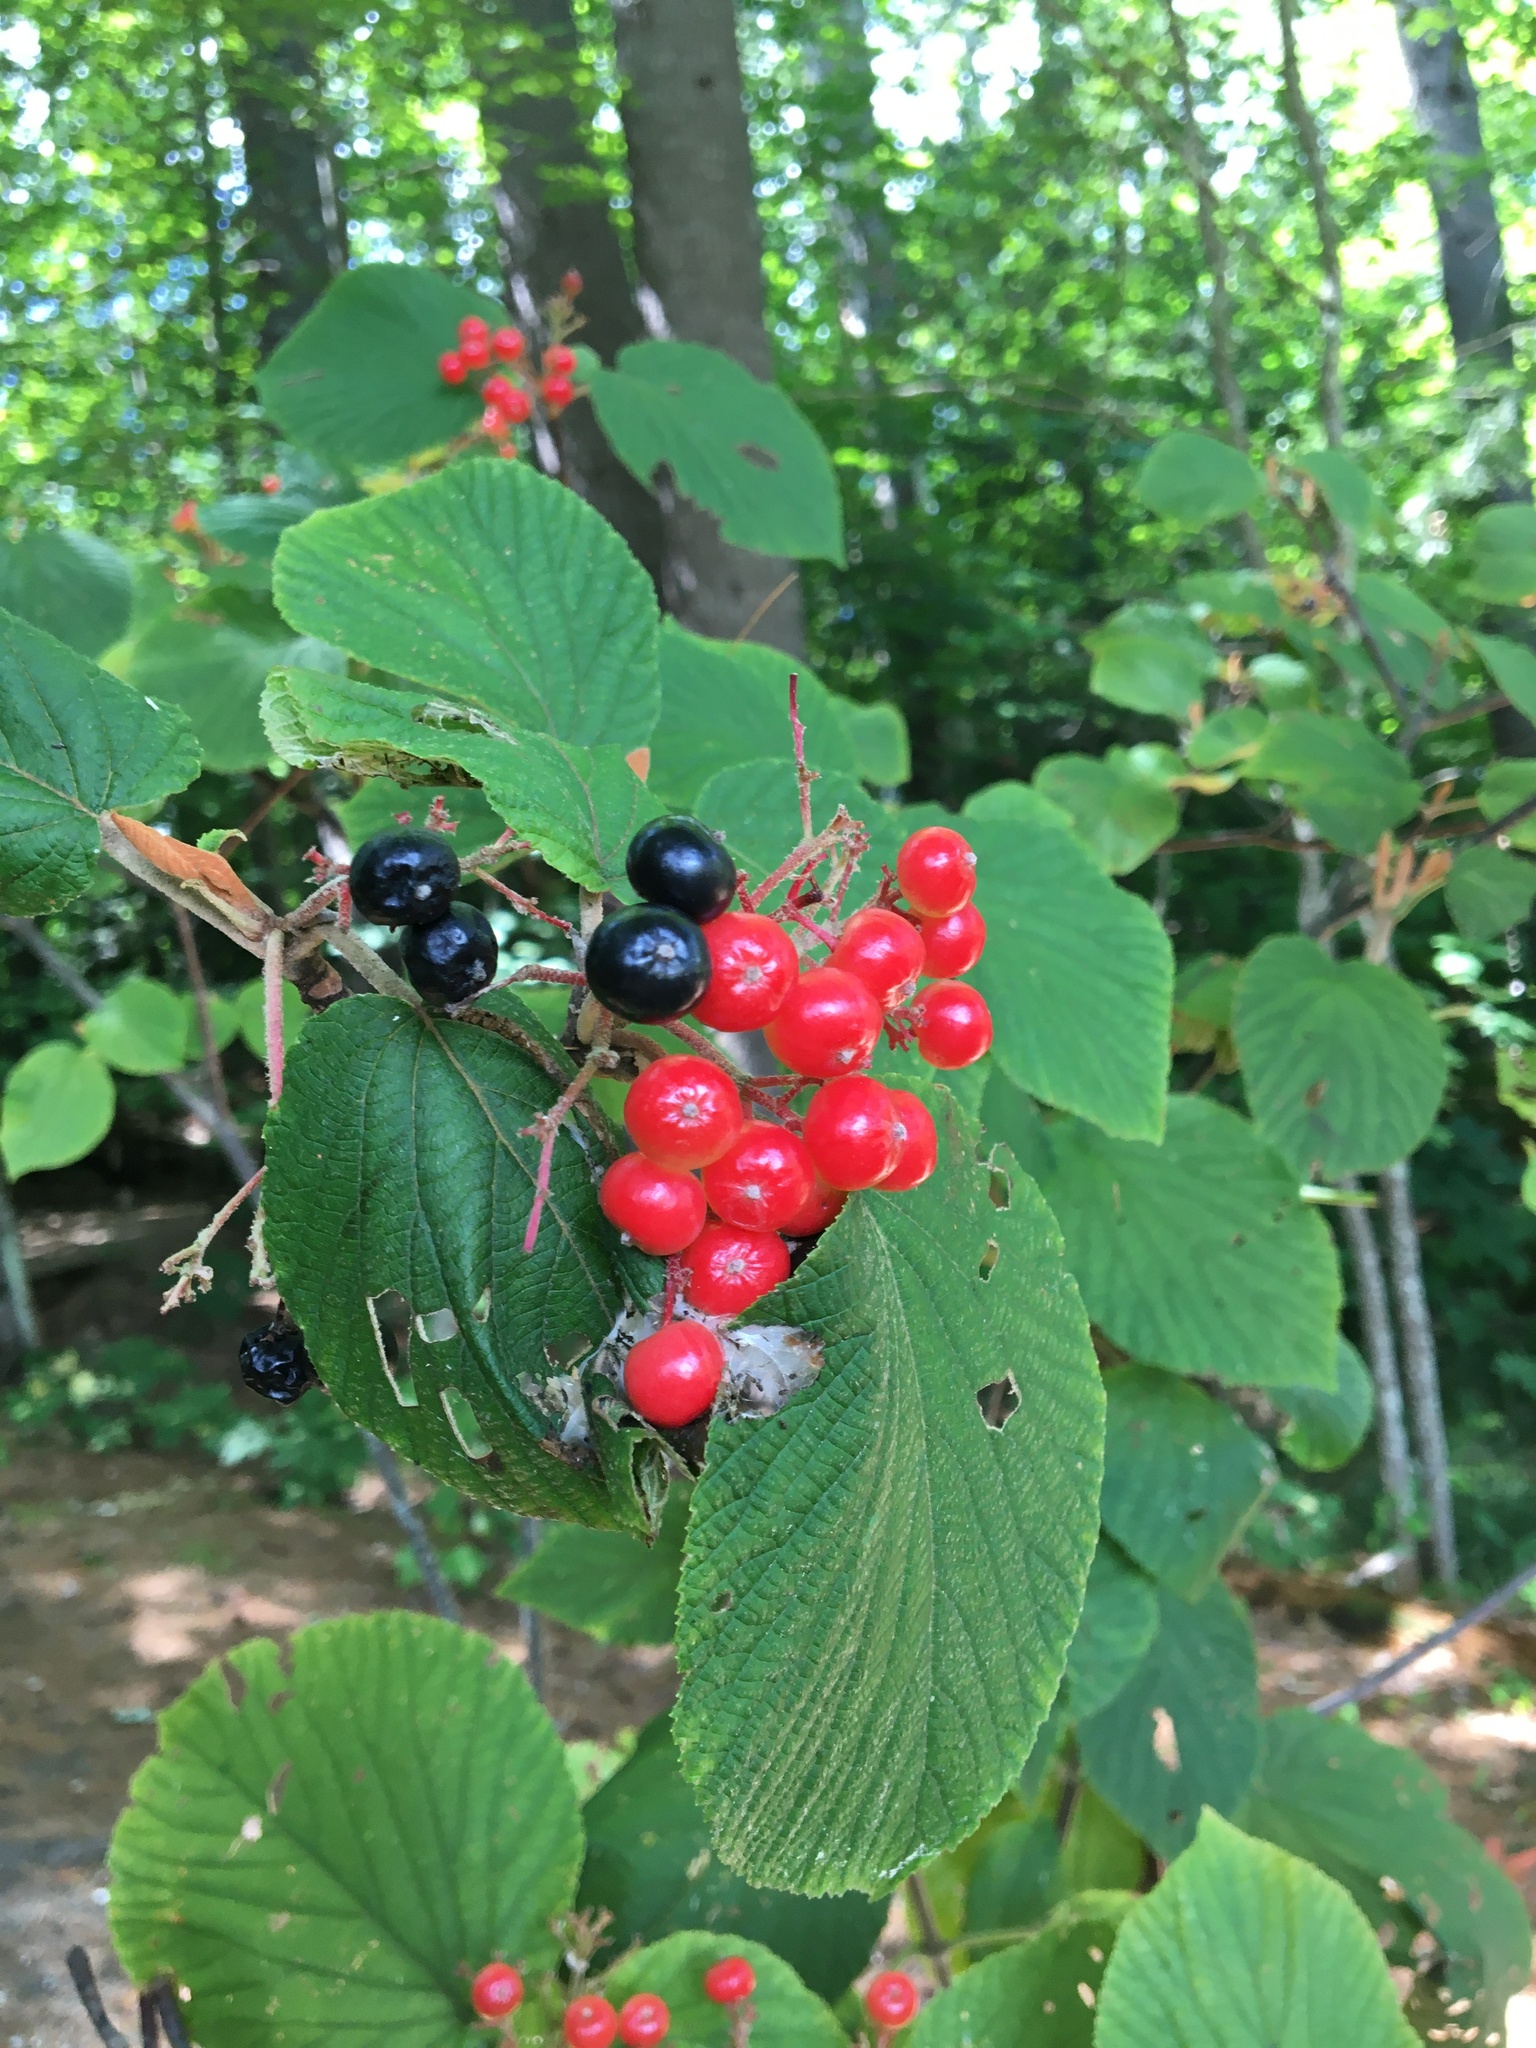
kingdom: Plantae
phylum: Tracheophyta
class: Magnoliopsida
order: Dipsacales
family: Viburnaceae
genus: Viburnum
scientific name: Viburnum lantanoides
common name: Hobblebush
